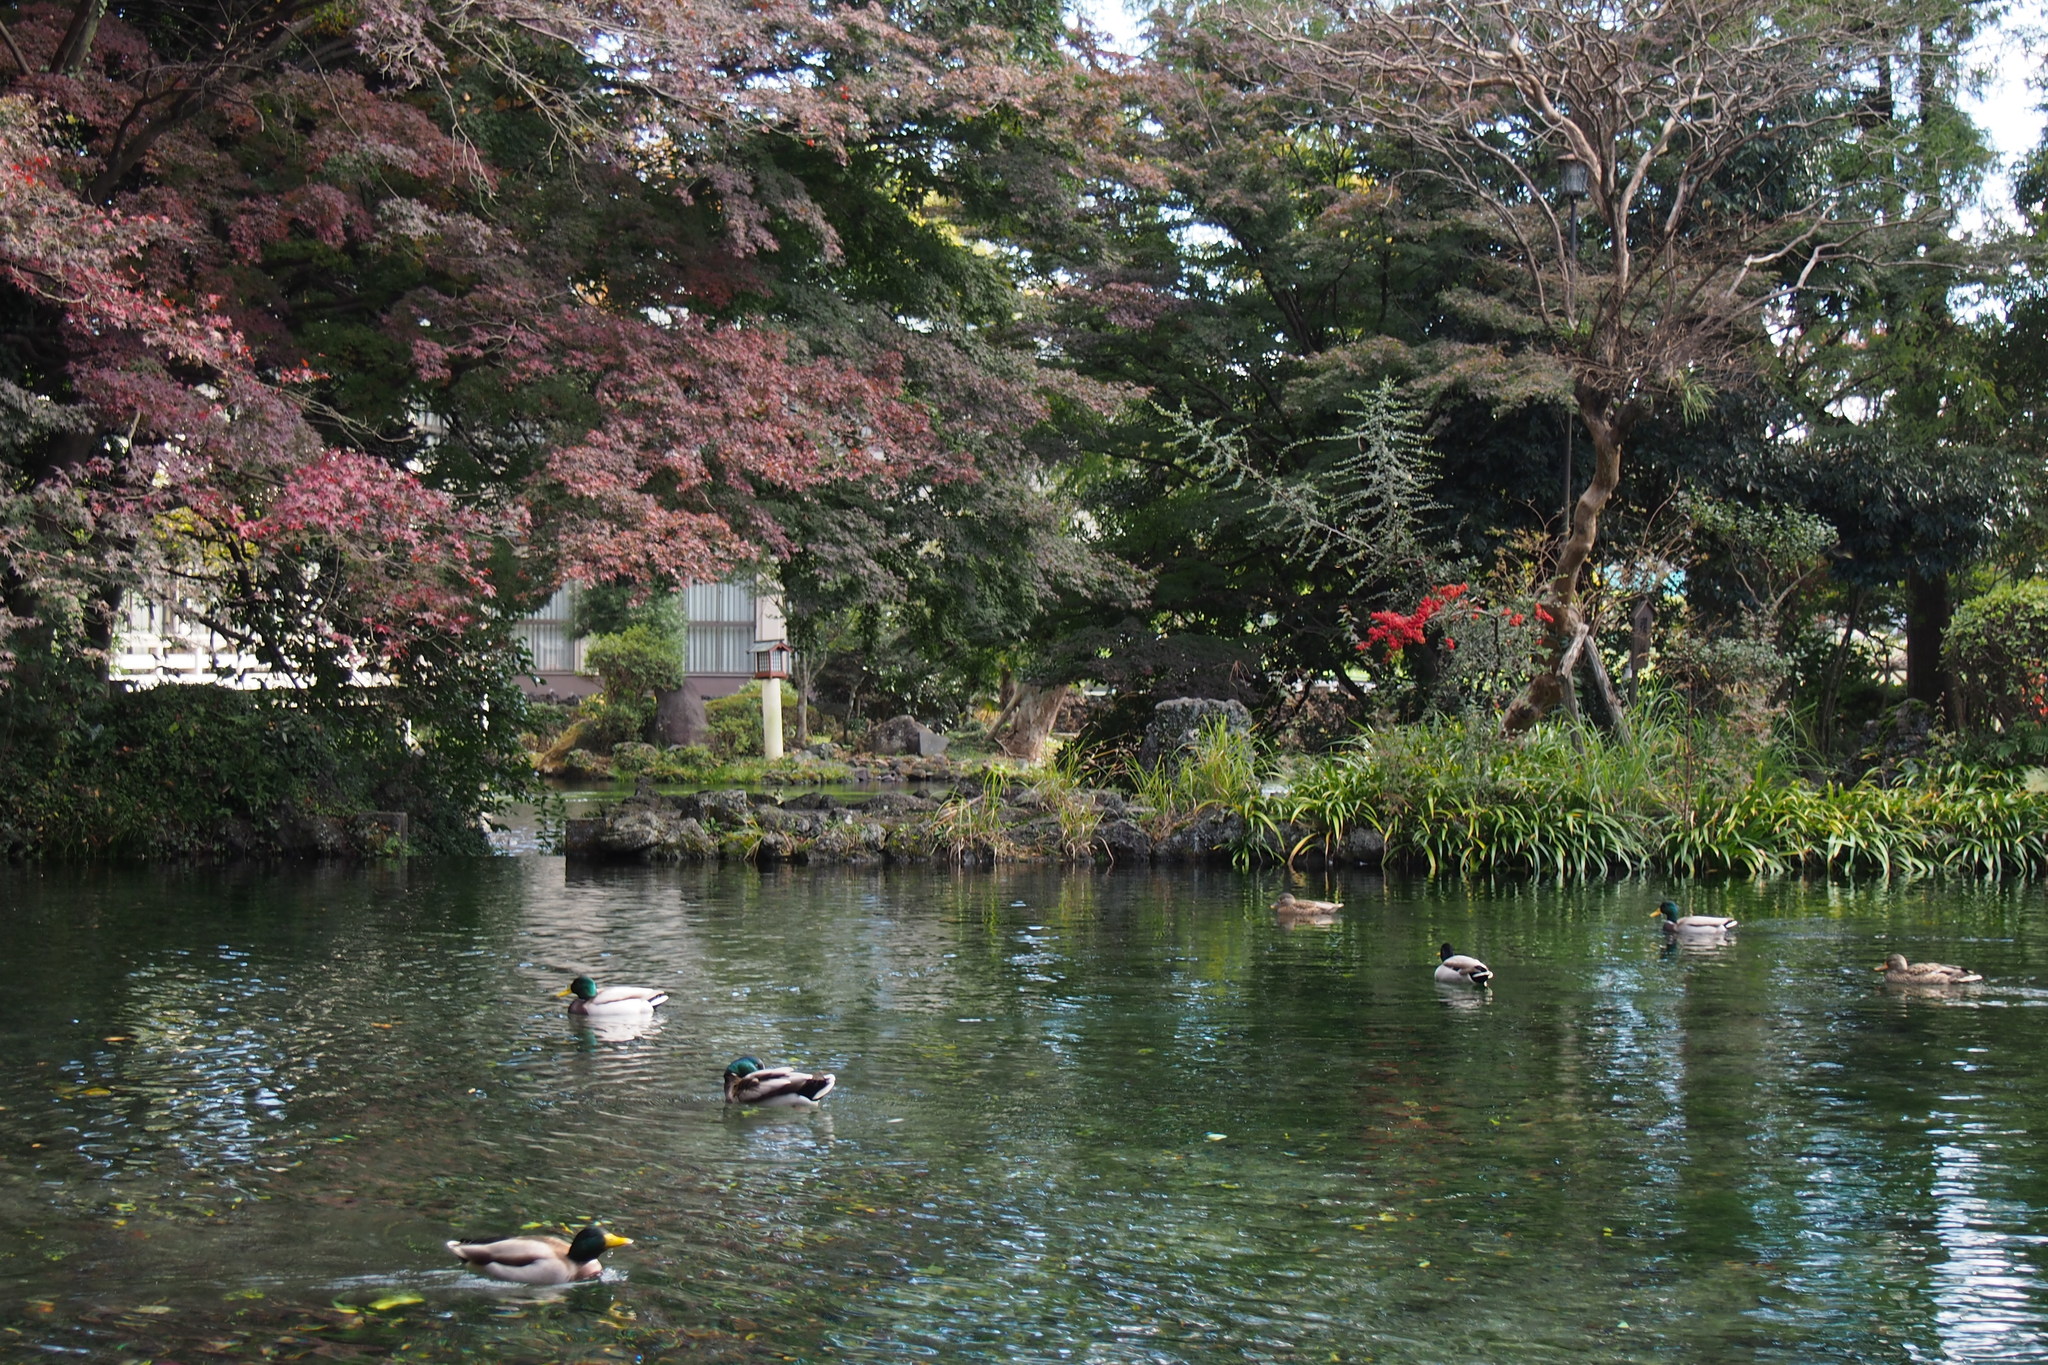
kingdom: Animalia
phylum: Chordata
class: Aves
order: Anseriformes
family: Anatidae
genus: Anas
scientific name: Anas platyrhynchos
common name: Mallard
